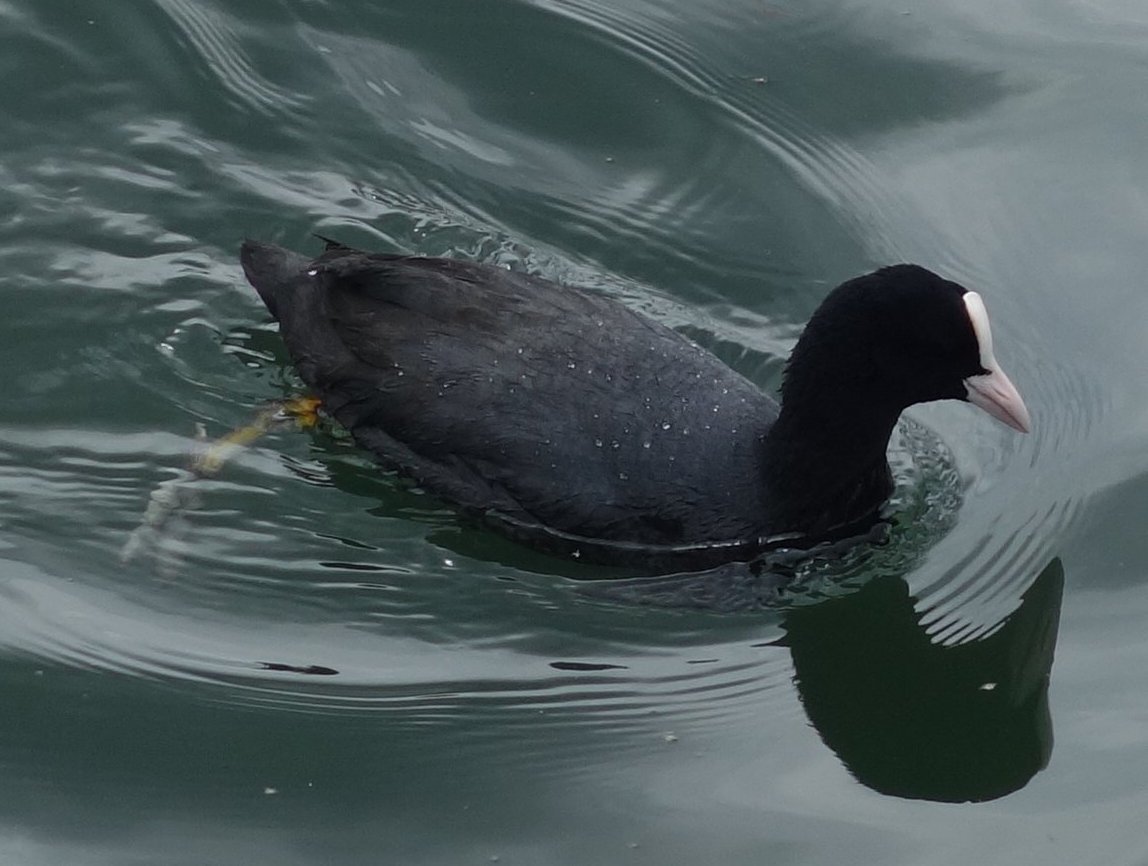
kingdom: Animalia
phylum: Chordata
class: Aves
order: Gruiformes
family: Rallidae
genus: Fulica
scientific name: Fulica atra
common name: Eurasian coot
